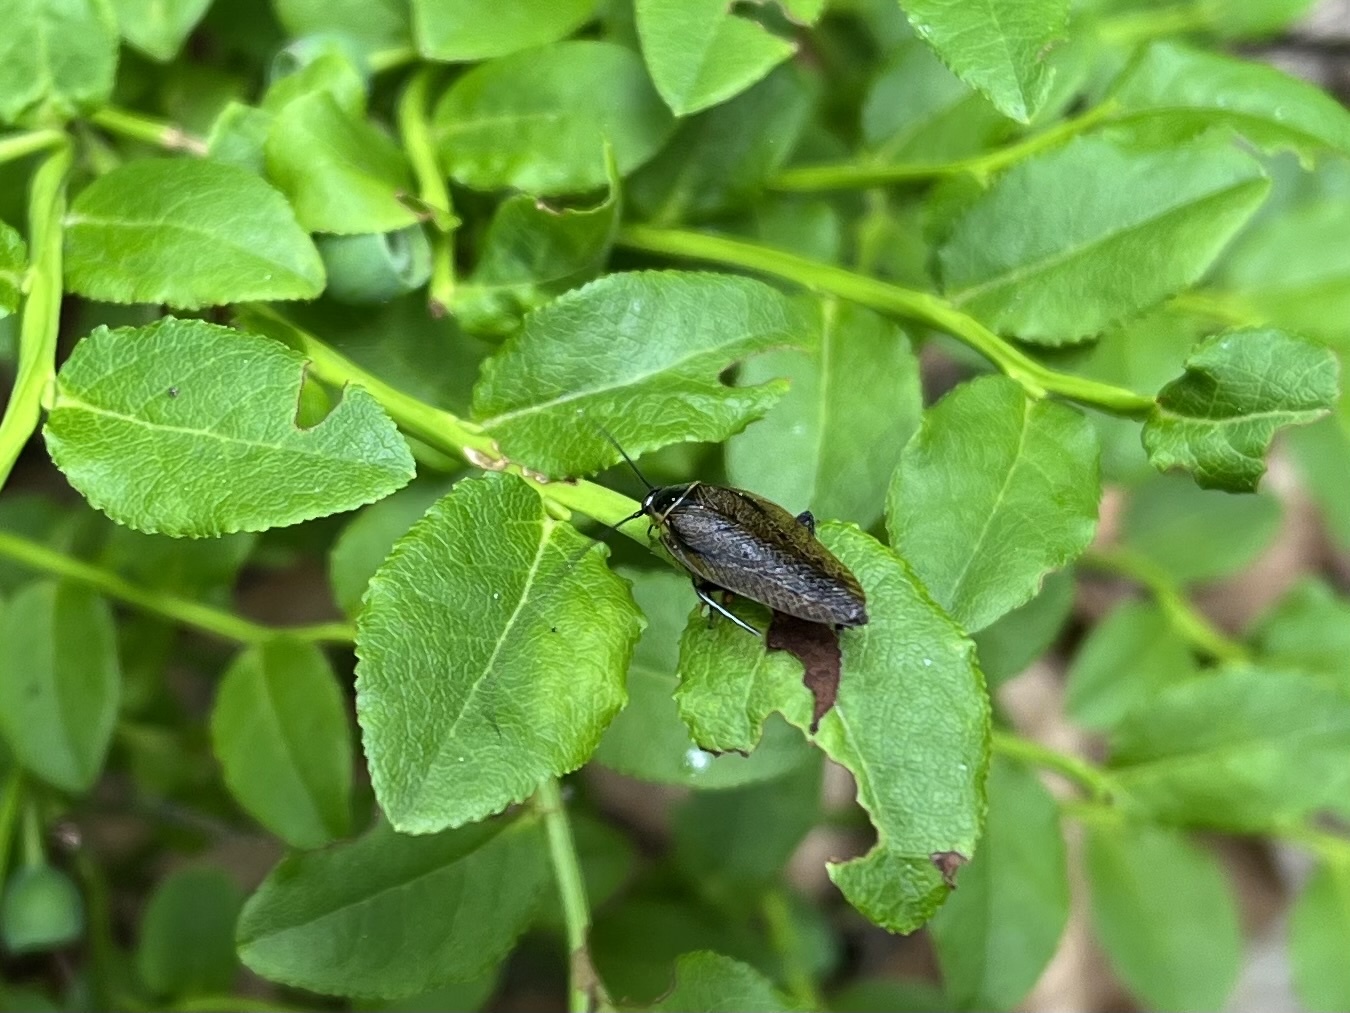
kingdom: Animalia
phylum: Arthropoda
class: Insecta
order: Blattodea
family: Ectobiidae
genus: Ectobius
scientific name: Ectobius sylvestris
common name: Forest cockroach
